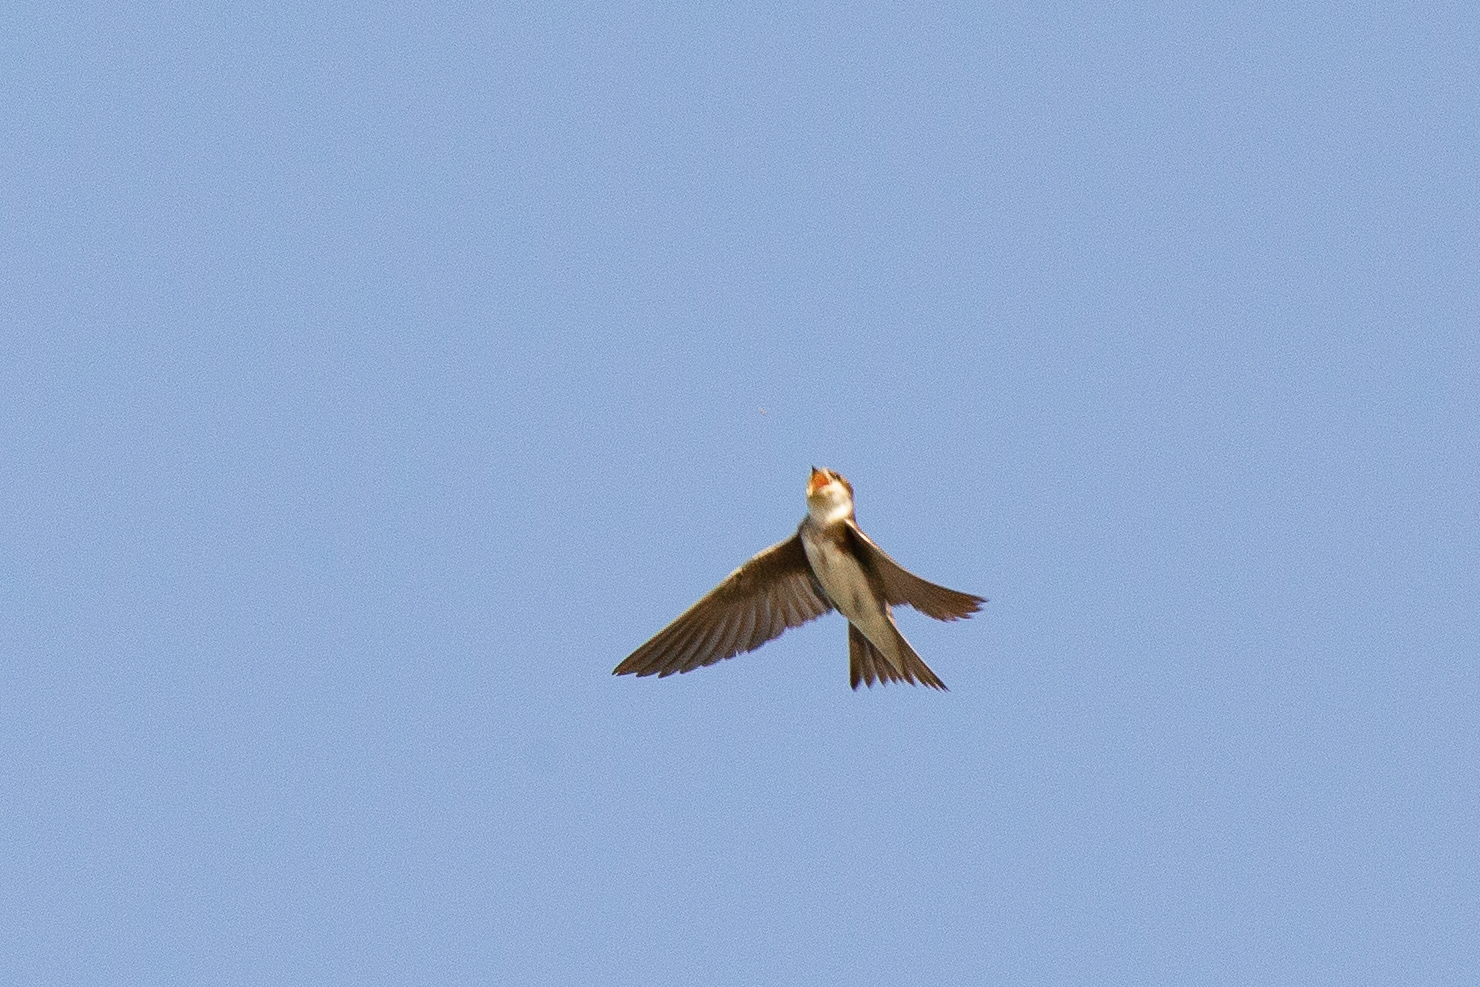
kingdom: Animalia
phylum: Chordata
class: Aves
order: Passeriformes
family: Hirundinidae
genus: Riparia
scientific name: Riparia riparia
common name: Sand martin
